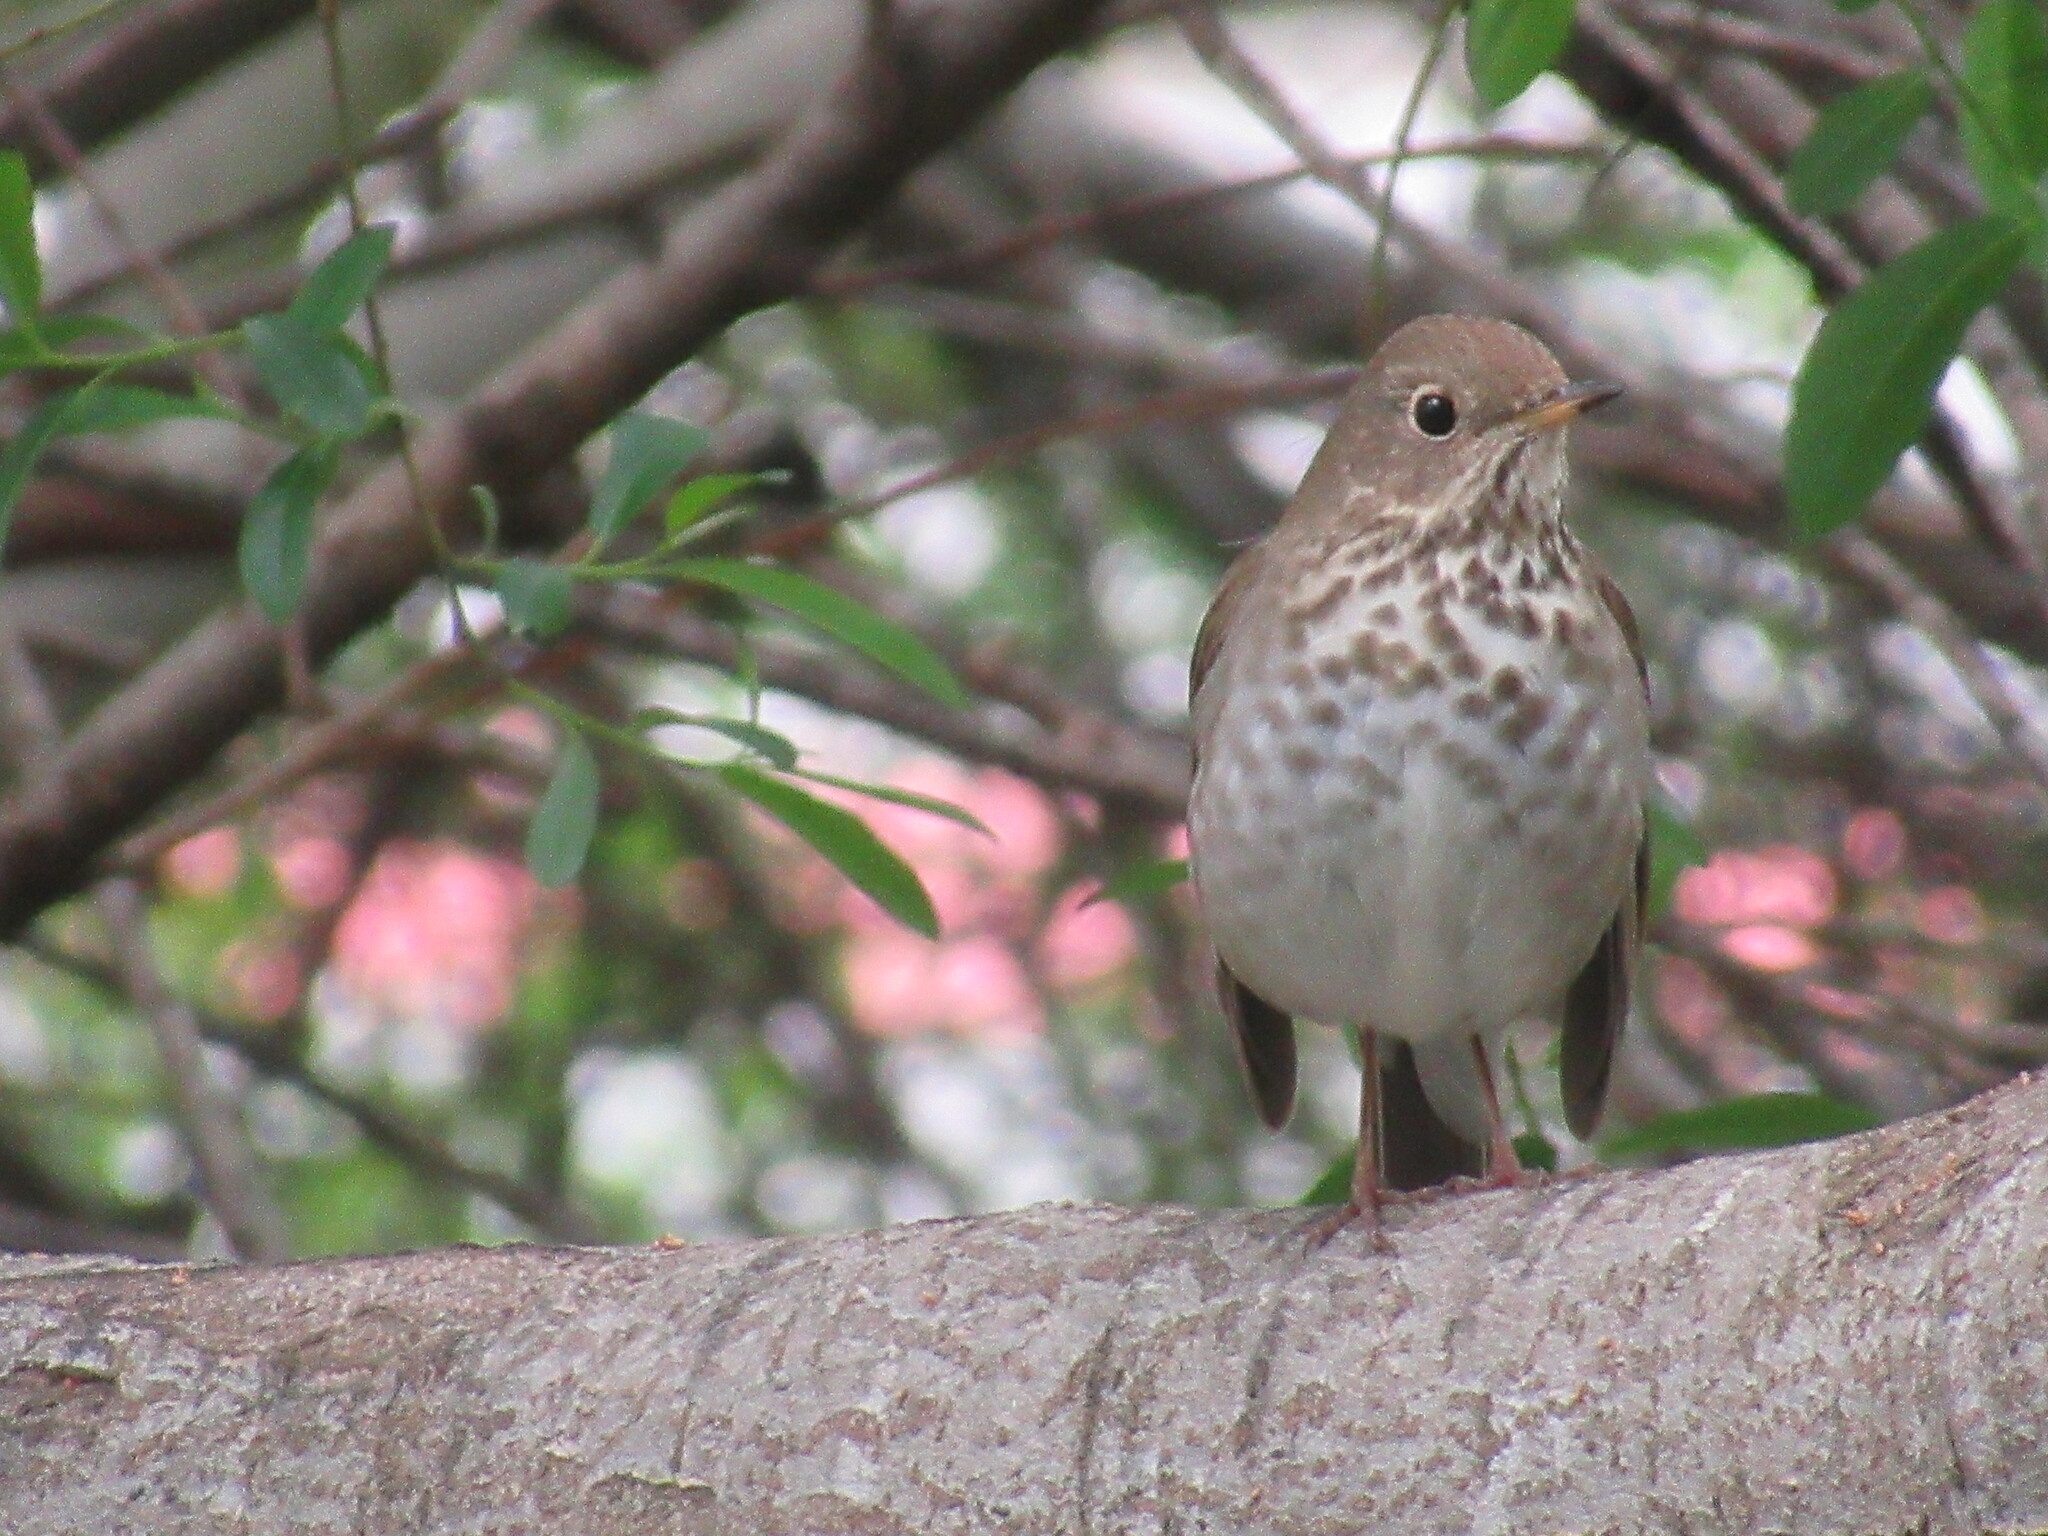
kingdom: Animalia
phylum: Chordata
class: Aves
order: Passeriformes
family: Turdidae
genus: Catharus
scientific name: Catharus guttatus
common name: Hermit thrush
